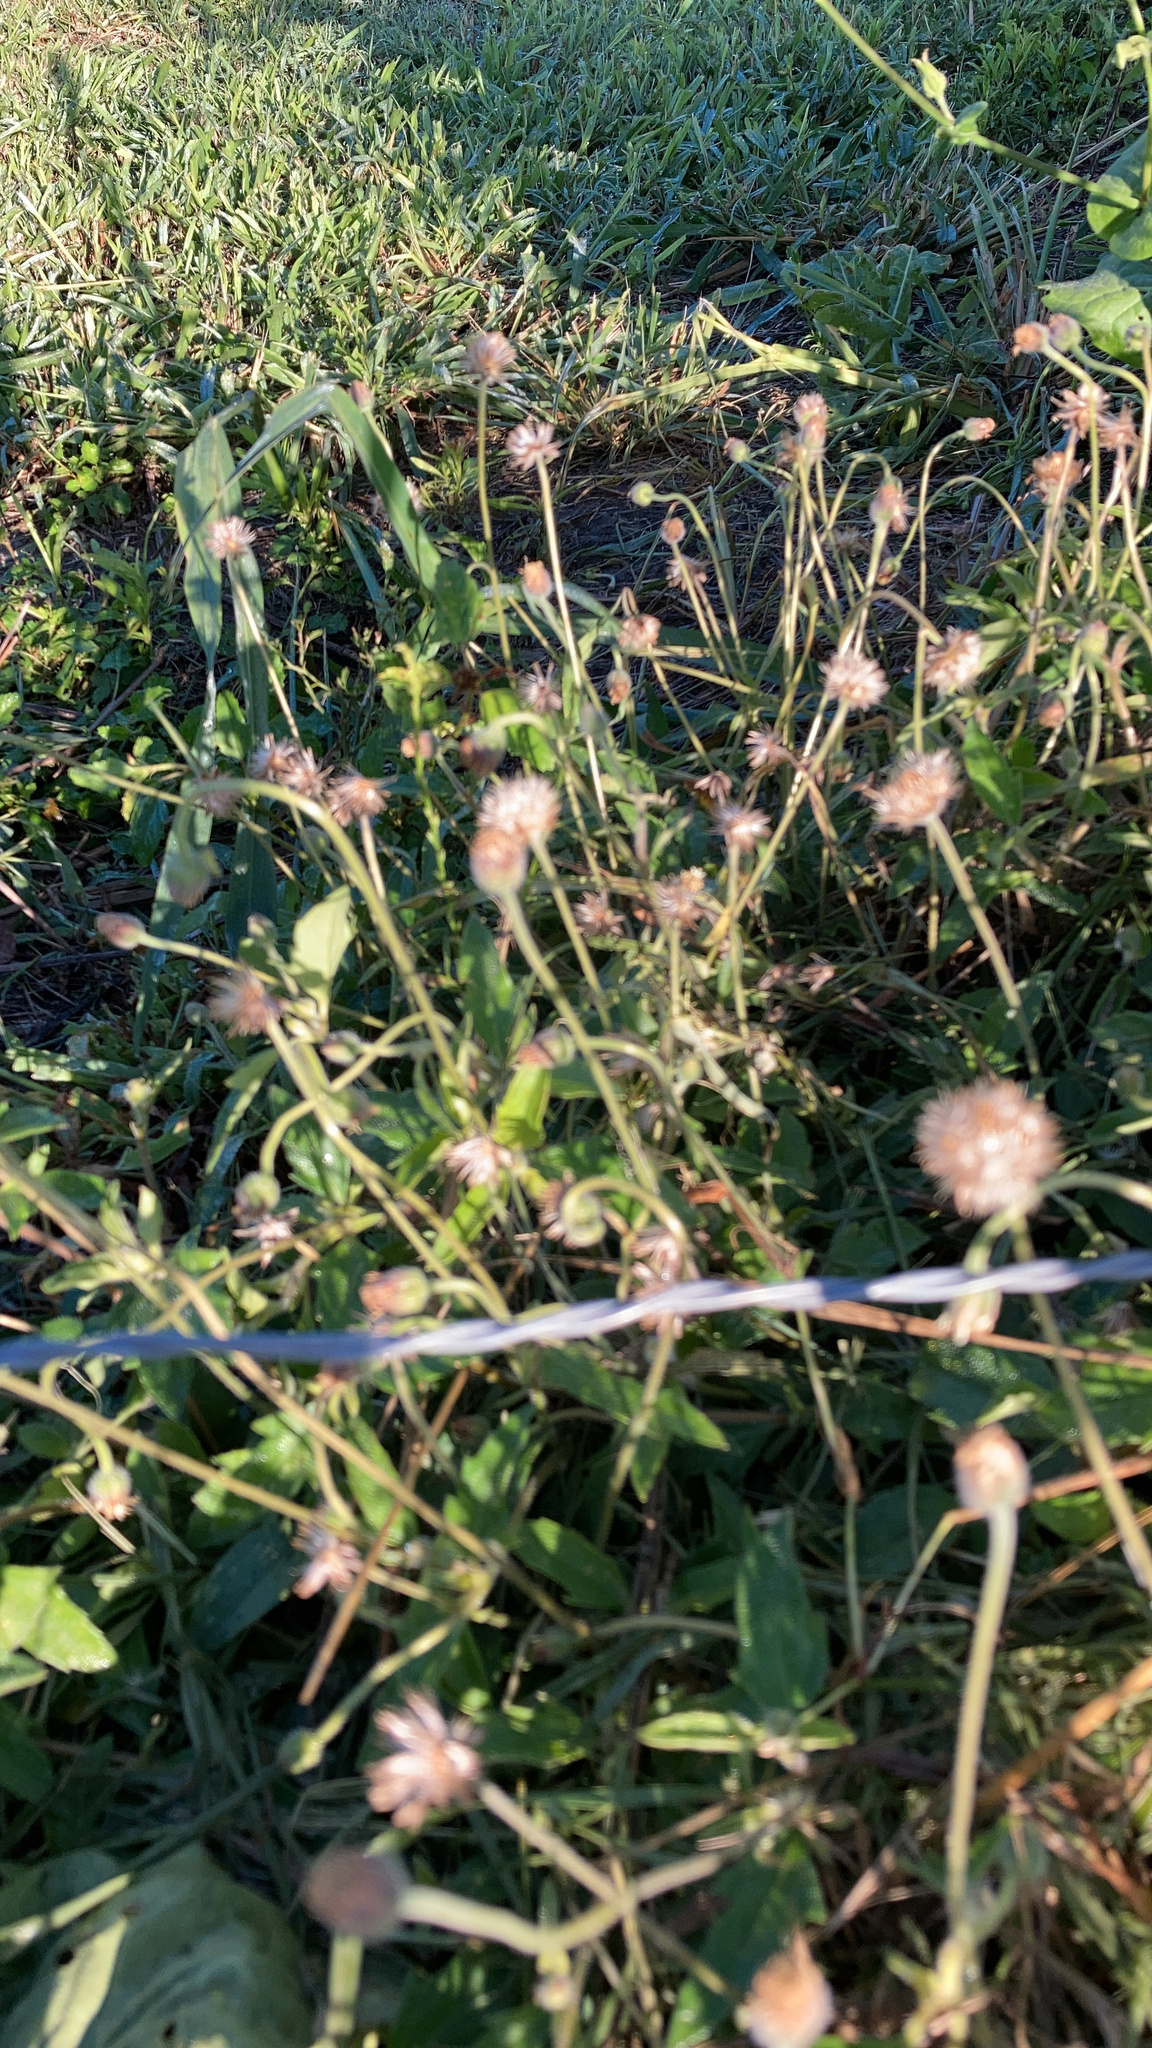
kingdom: Plantae
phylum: Tracheophyta
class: Magnoliopsida
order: Asterales
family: Asteraceae
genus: Tridax
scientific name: Tridax procumbens
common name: Coatbuttons
